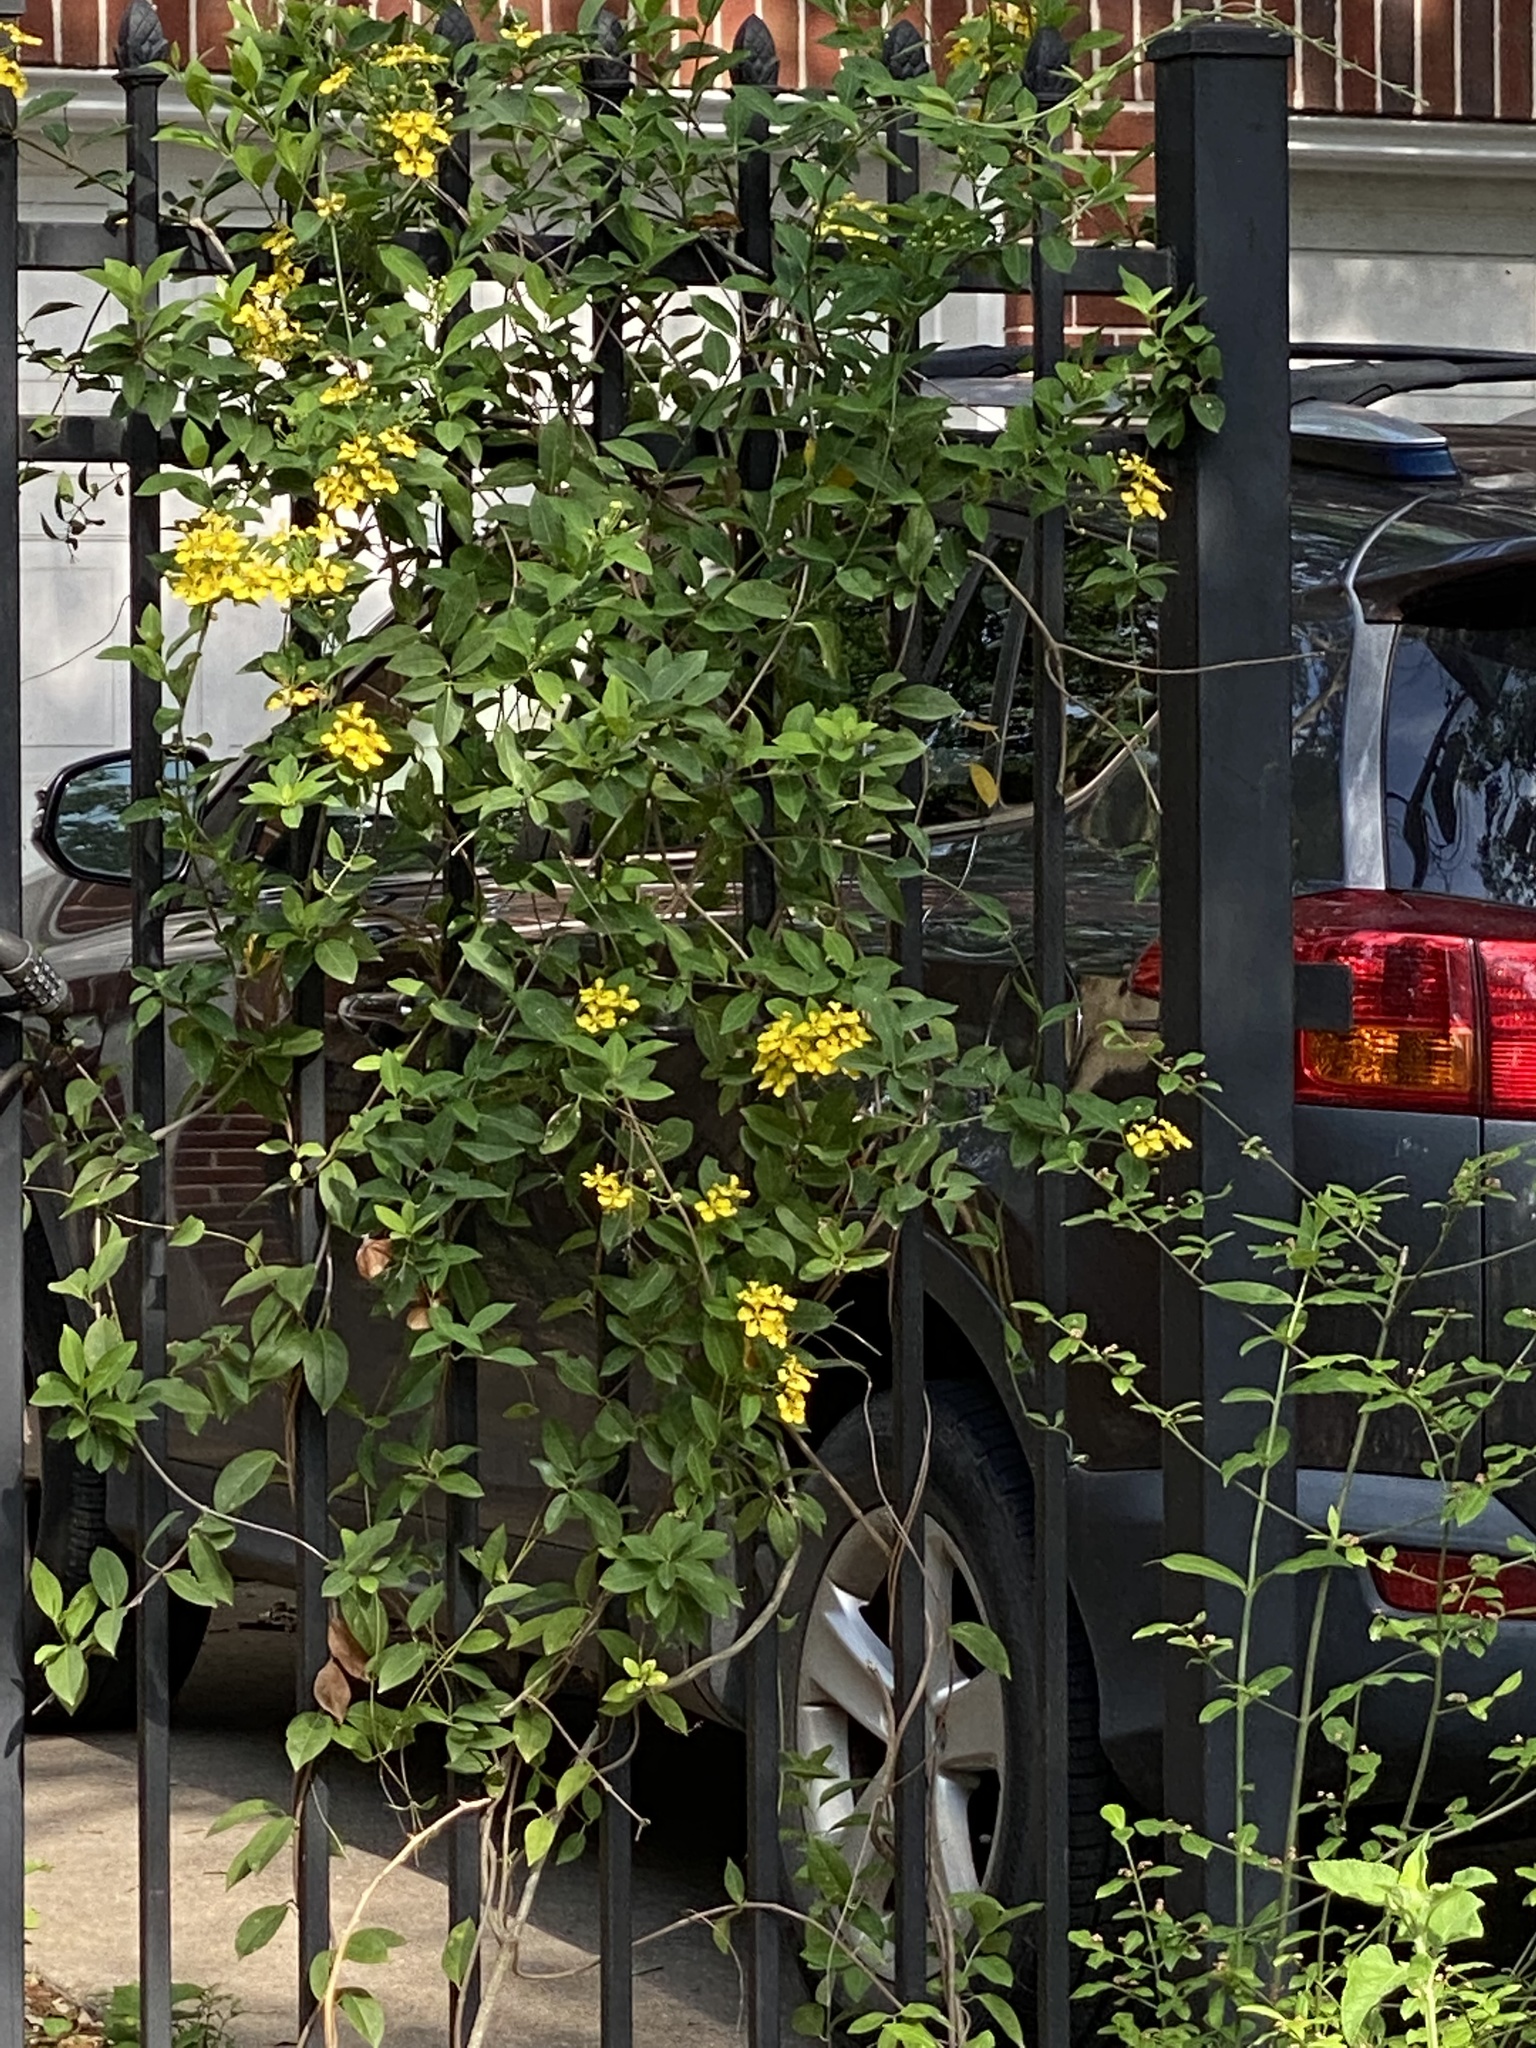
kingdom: Plantae
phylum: Tracheophyta
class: Magnoliopsida
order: Gentianales
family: Gelsemiaceae
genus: Gelsemium
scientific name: Gelsemium sempervirens
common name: Carolina-jasmine
